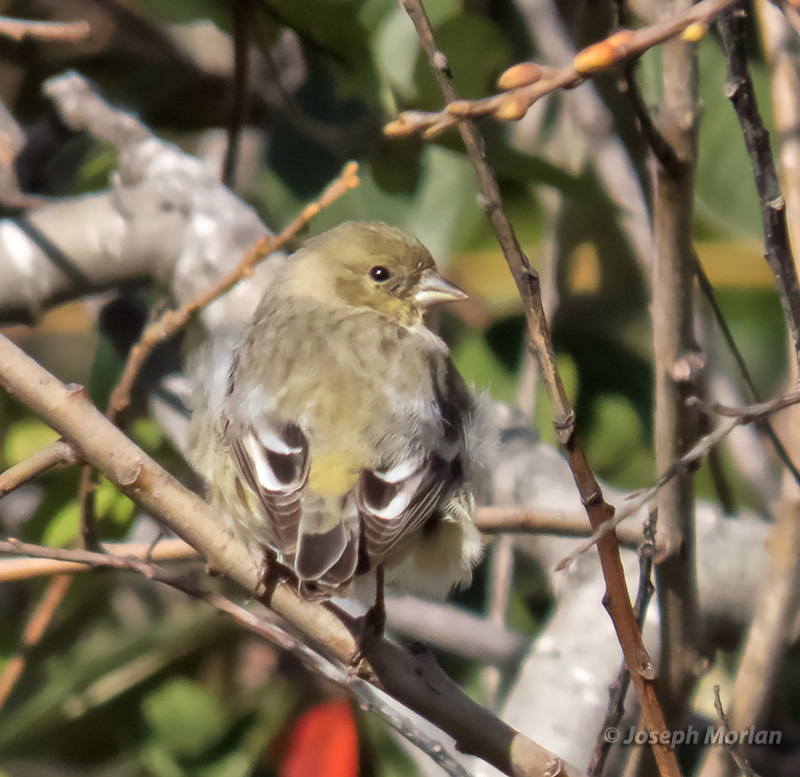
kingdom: Animalia
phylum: Chordata
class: Aves
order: Passeriformes
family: Fringillidae
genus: Spinus
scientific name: Spinus psaltria
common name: Lesser goldfinch
